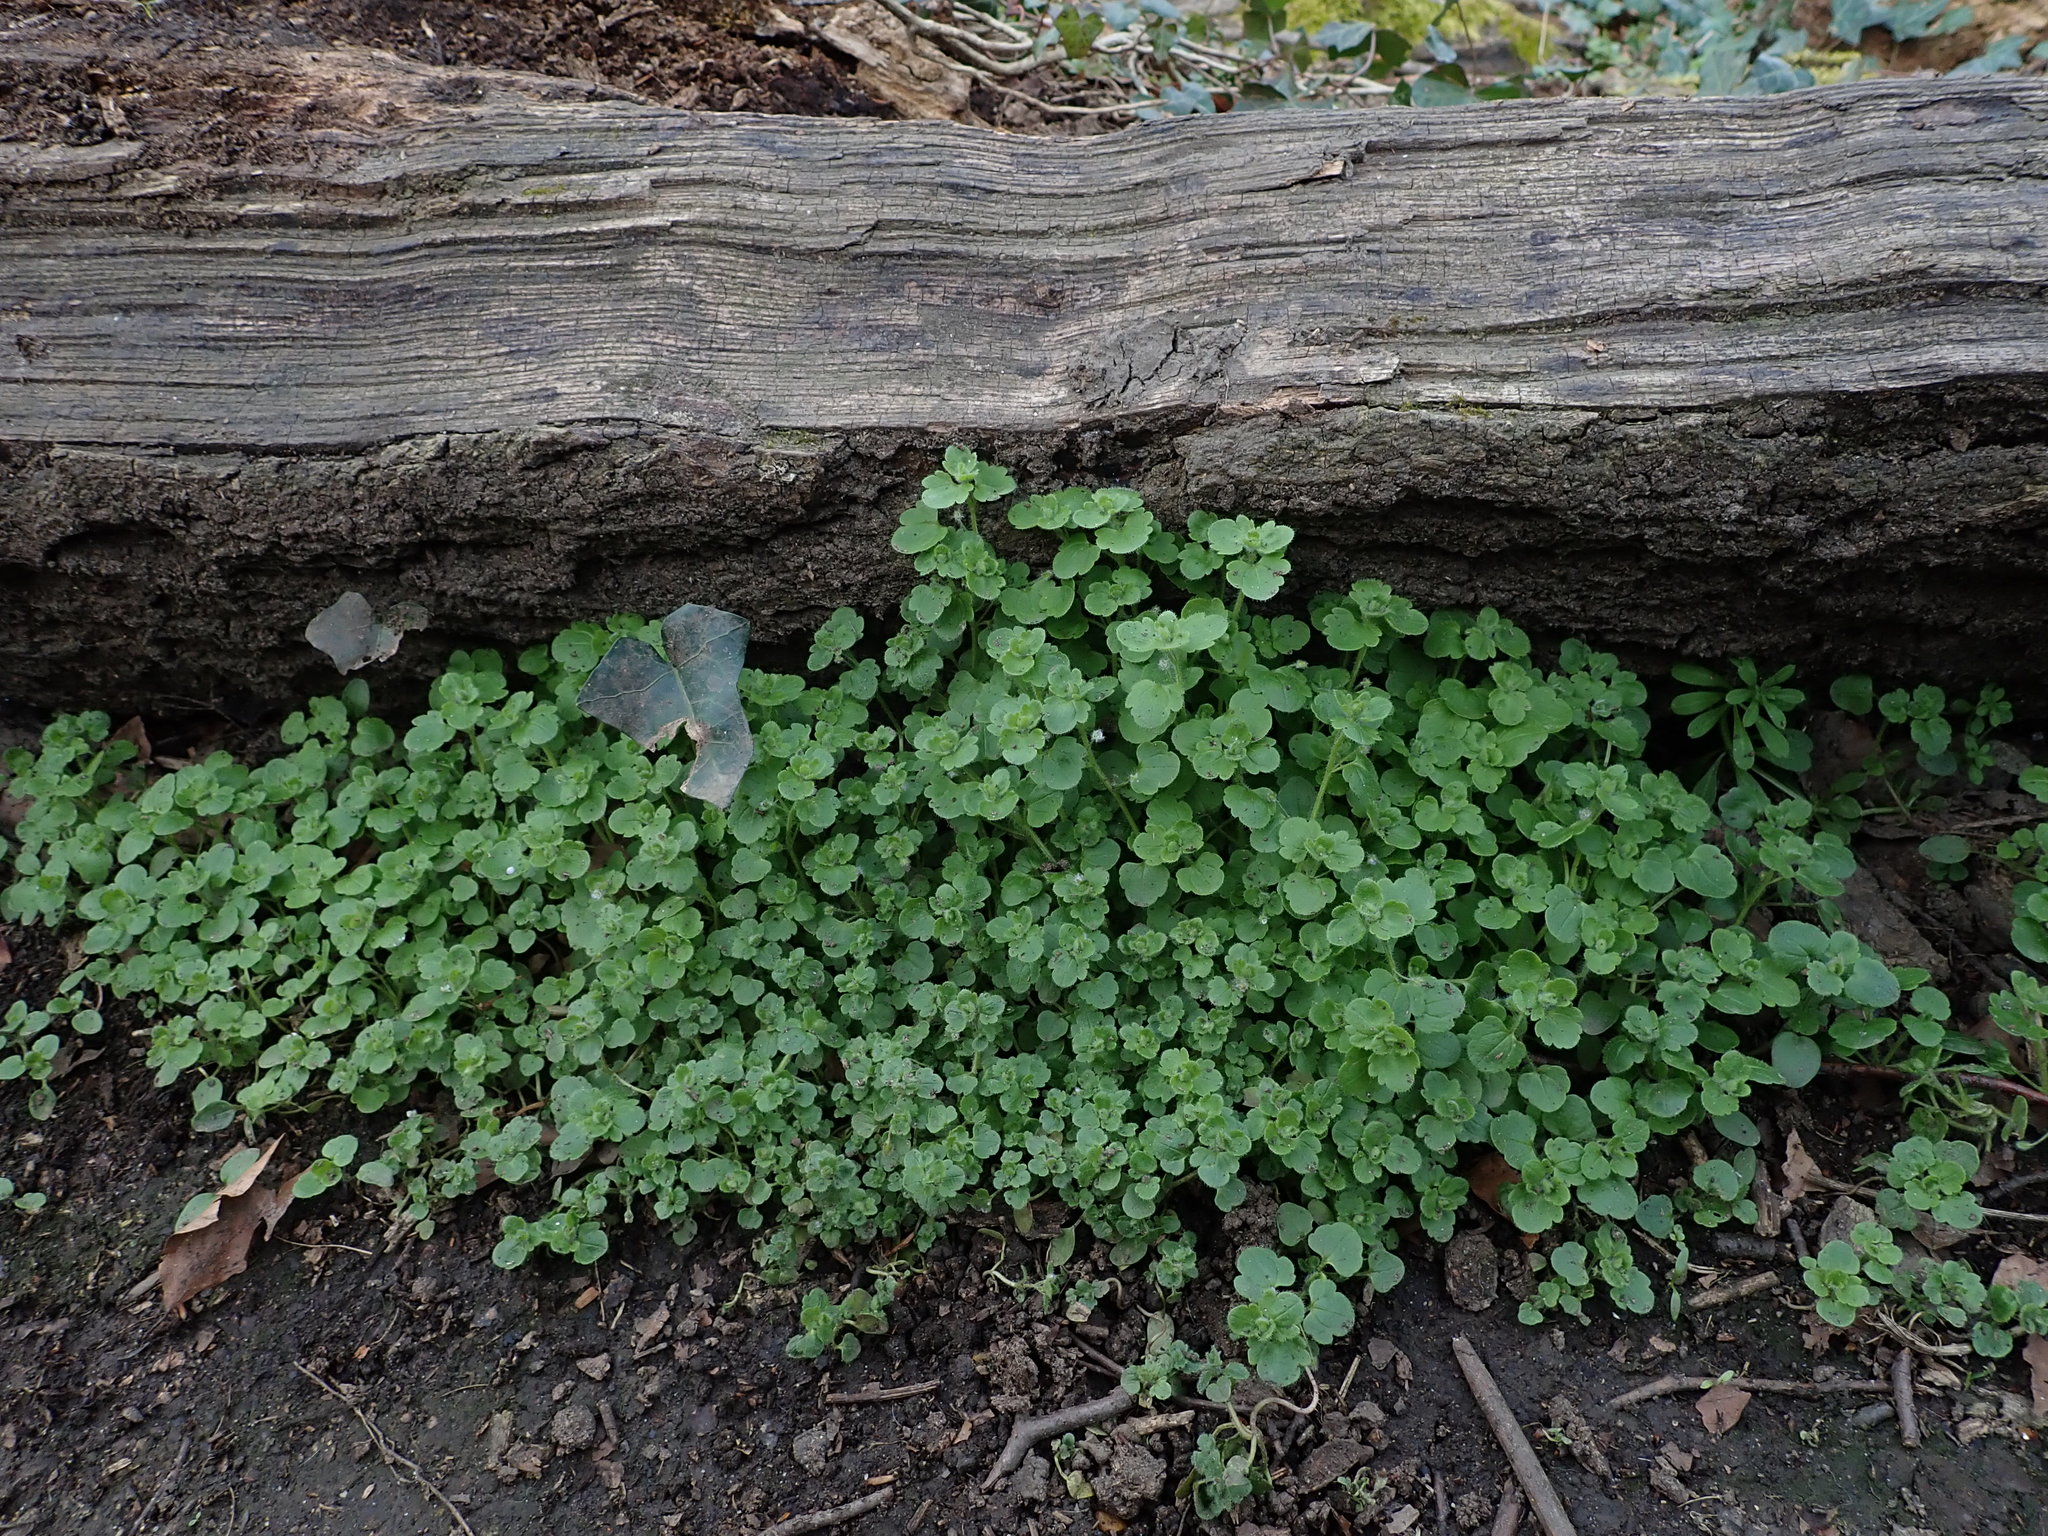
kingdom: Plantae
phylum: Tracheophyta
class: Magnoliopsida
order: Lamiales
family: Plantaginaceae
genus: Veronica
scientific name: Veronica sublobata
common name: False ivy-leaved speedwell
